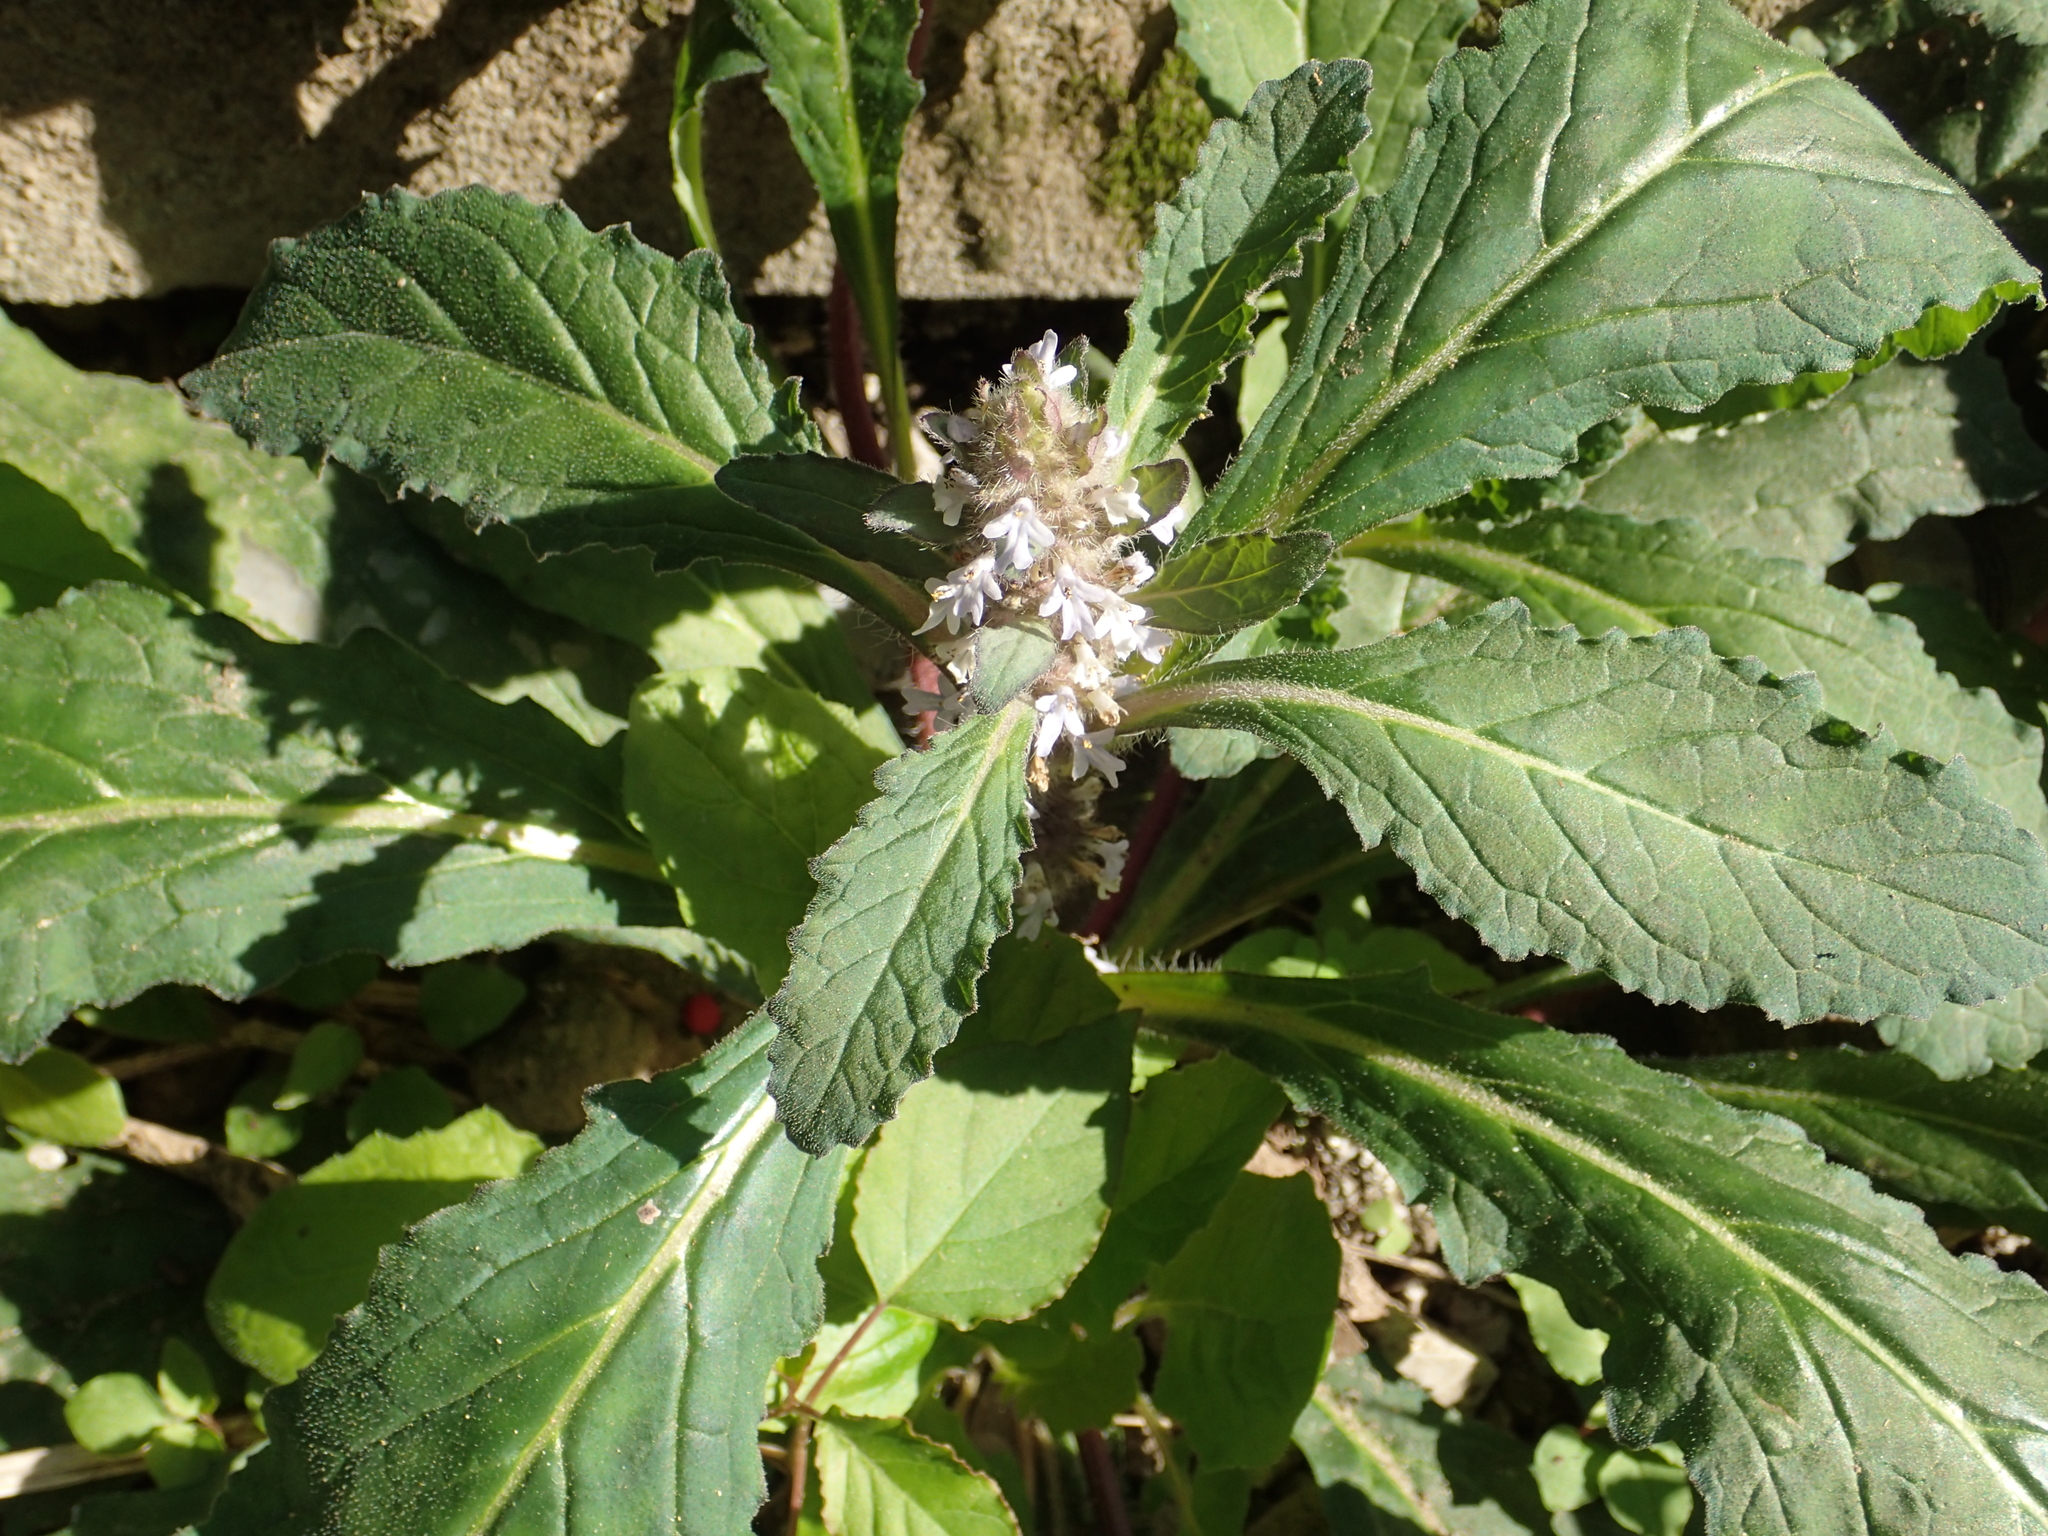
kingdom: Plantae
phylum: Tracheophyta
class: Magnoliopsida
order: Lamiales
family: Lamiaceae
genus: Ajuga
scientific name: Ajuga taiwanensis
